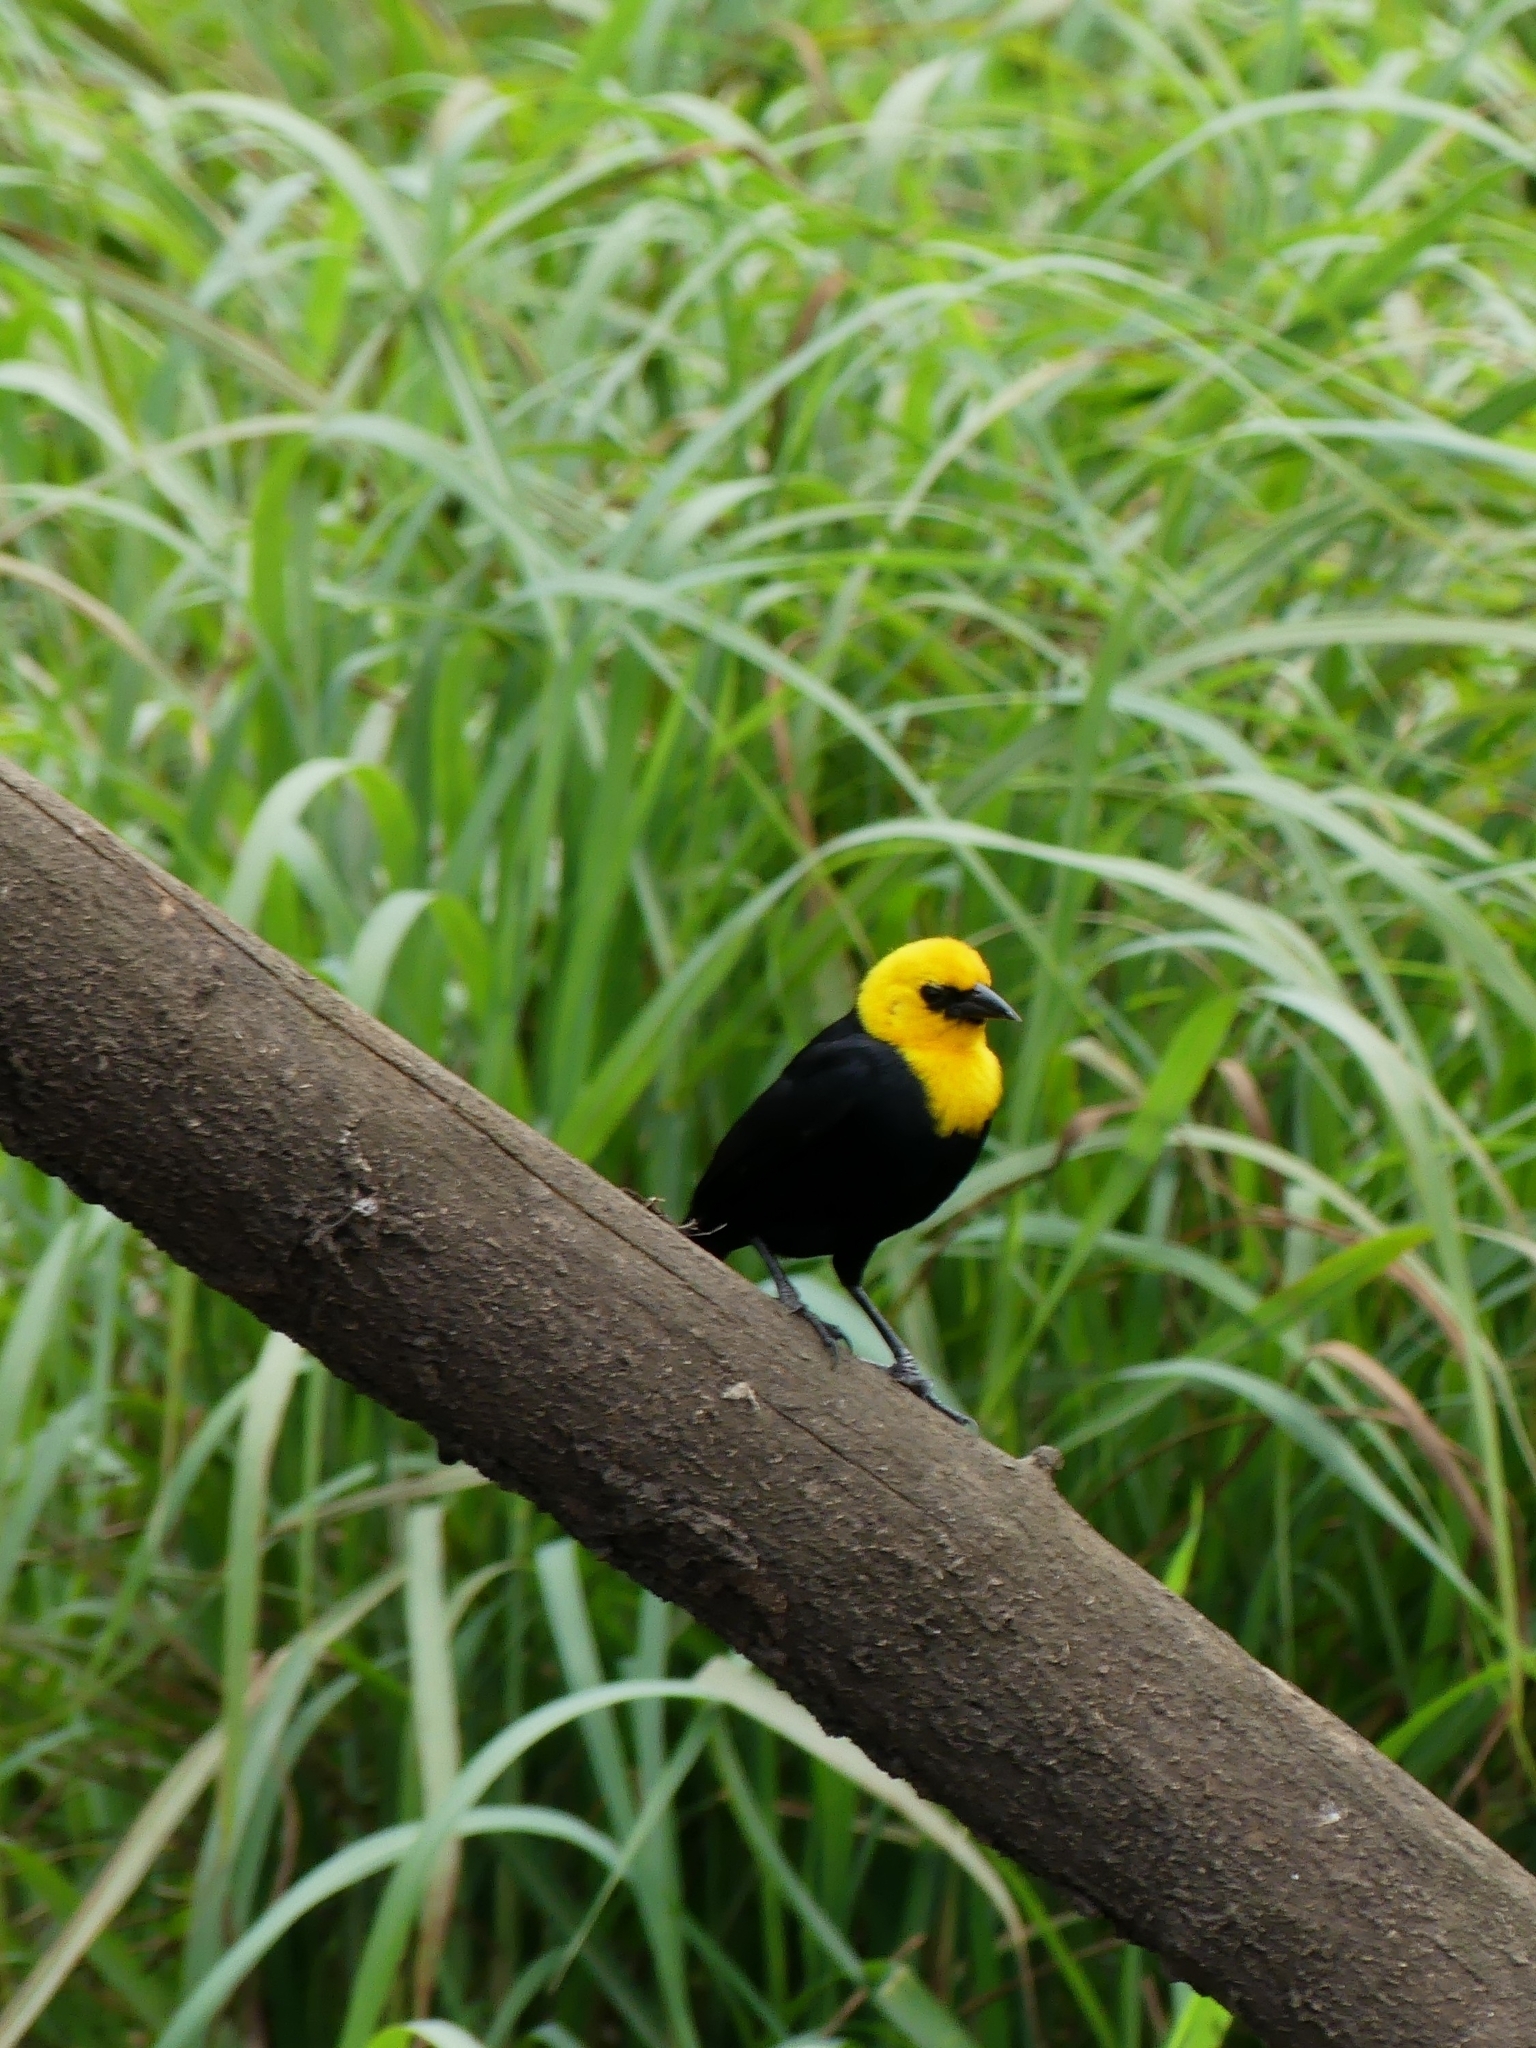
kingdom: Animalia
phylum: Chordata
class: Aves
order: Passeriformes
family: Icteridae
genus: Chrysomus
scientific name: Chrysomus icterocephalus
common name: Yellow-hooded blackbird
